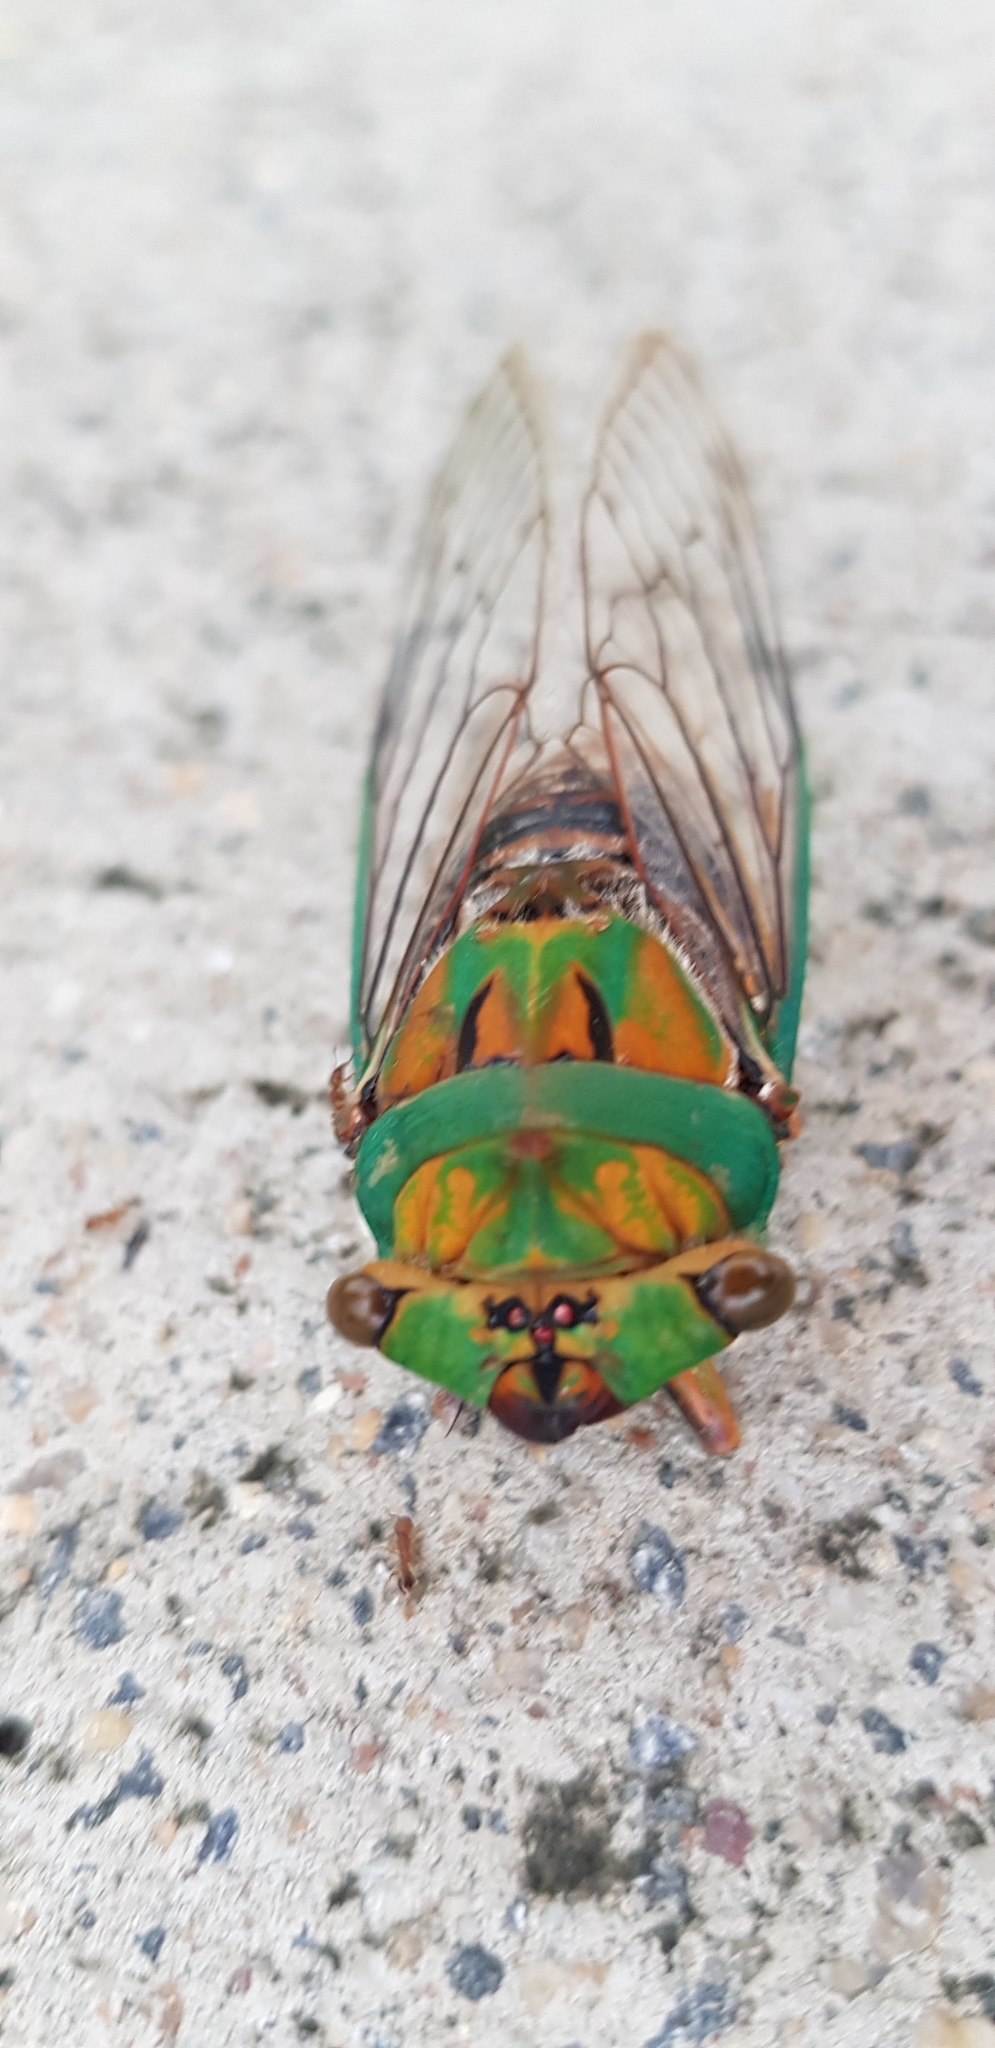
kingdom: Animalia
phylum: Arthropoda
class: Insecta
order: Hemiptera
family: Cicadidae
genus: Macrotristria
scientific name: Macrotristria sylvara
